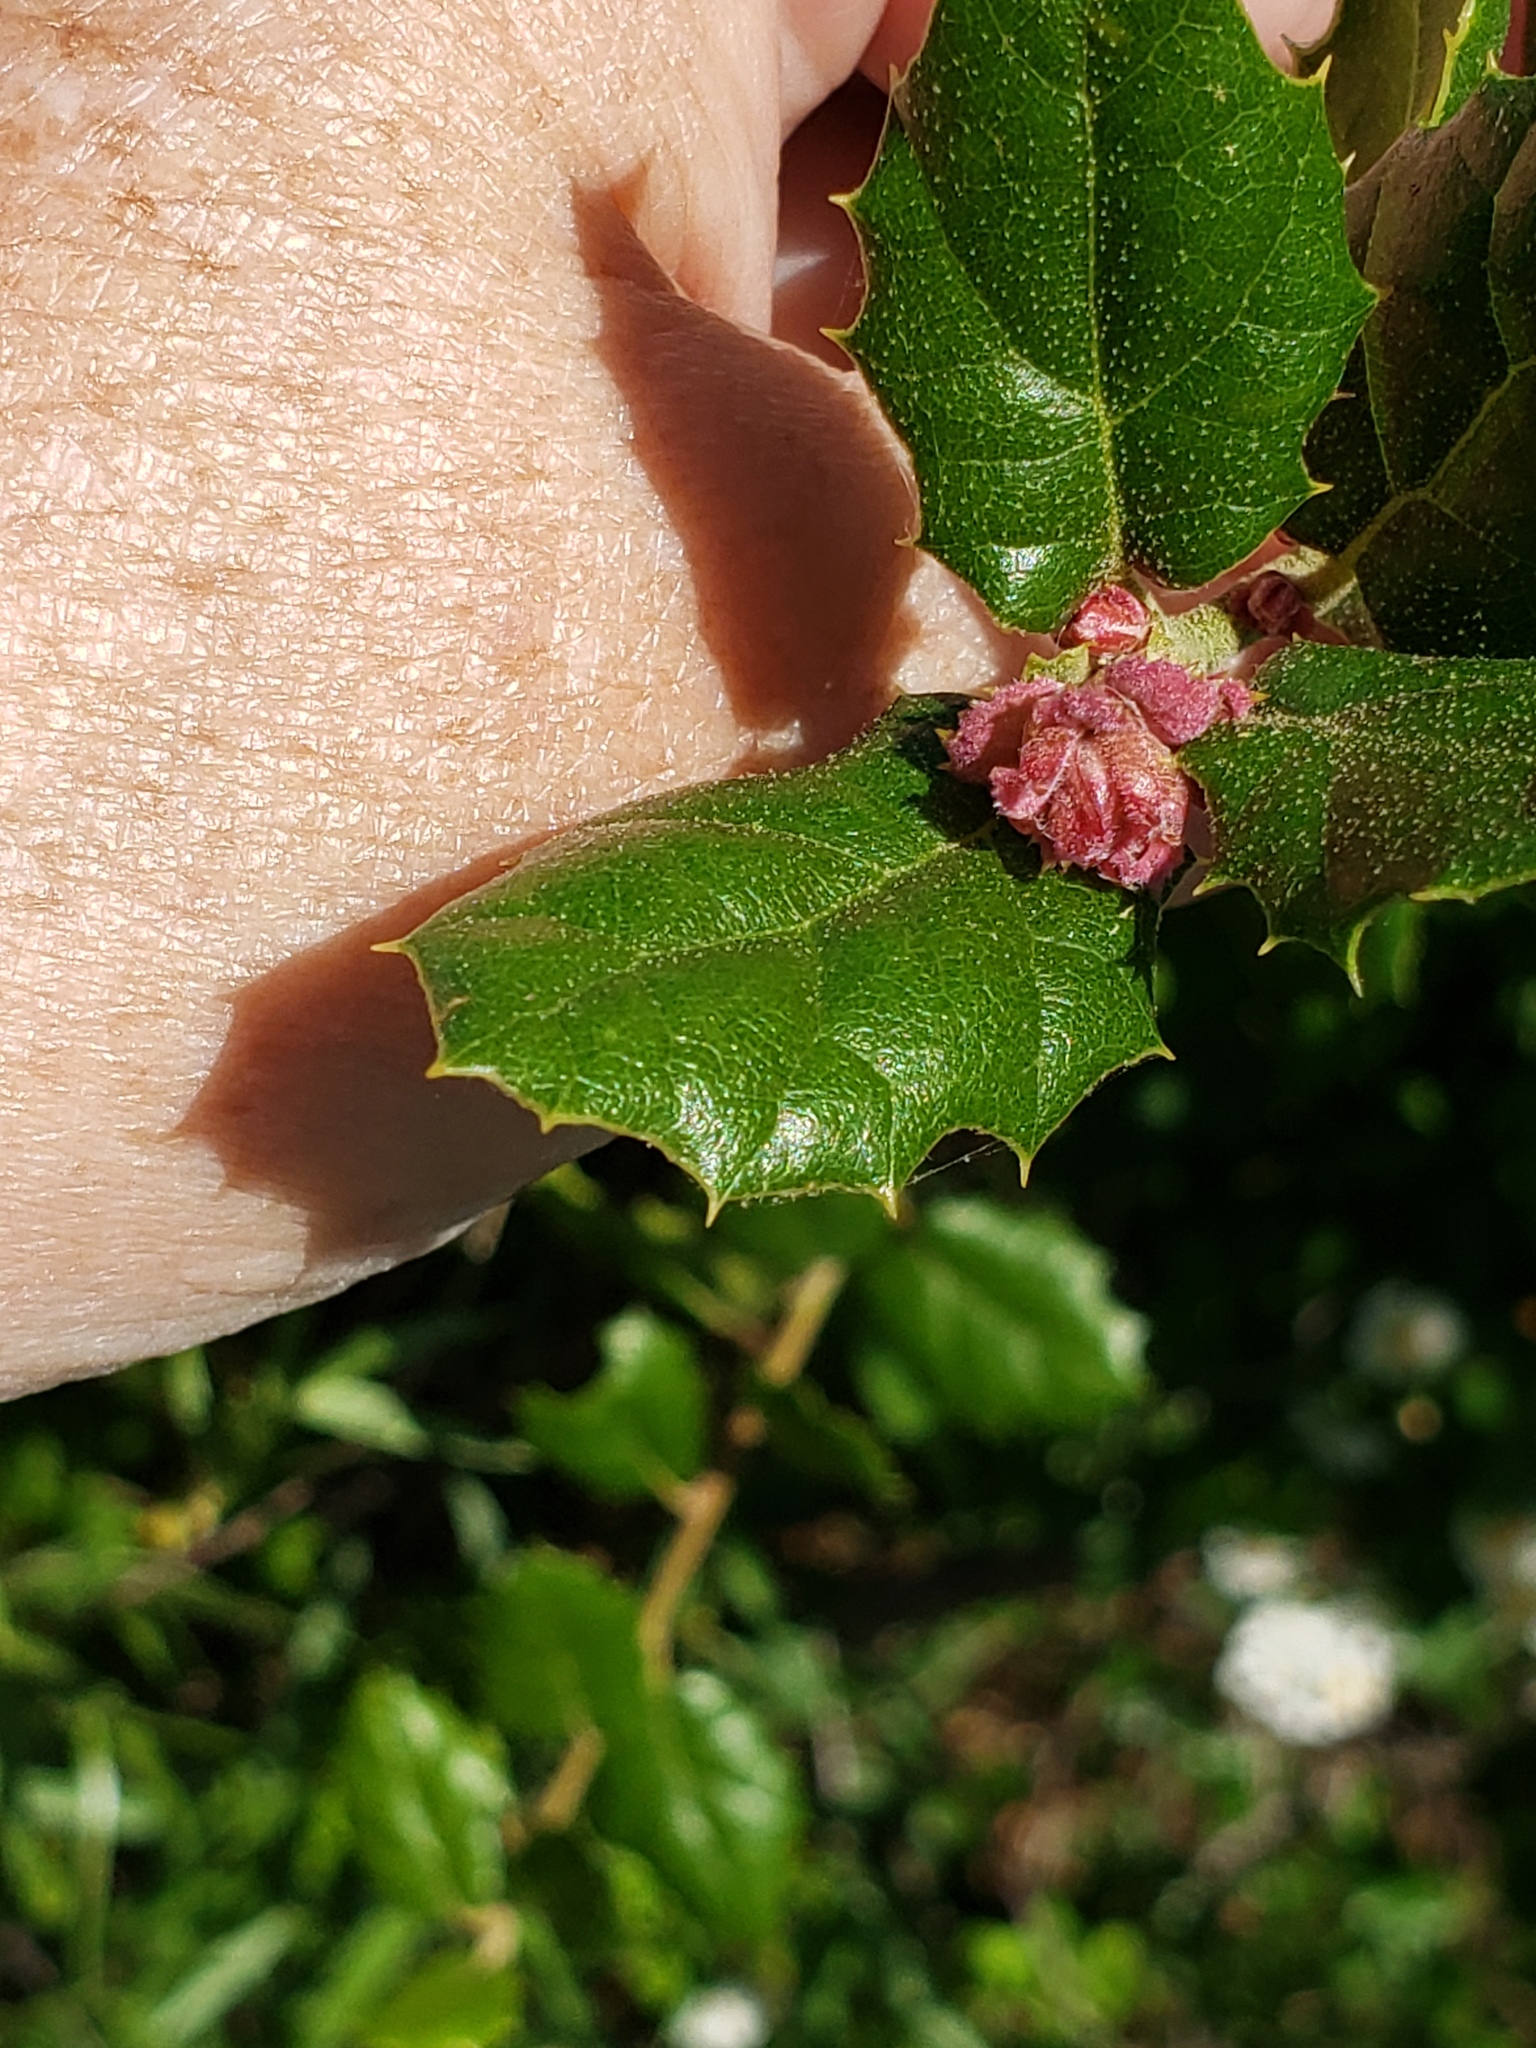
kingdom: Plantae
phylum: Tracheophyta
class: Magnoliopsida
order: Fagales
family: Fagaceae
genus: Quercus
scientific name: Quercus agrifolia
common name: California live oak
